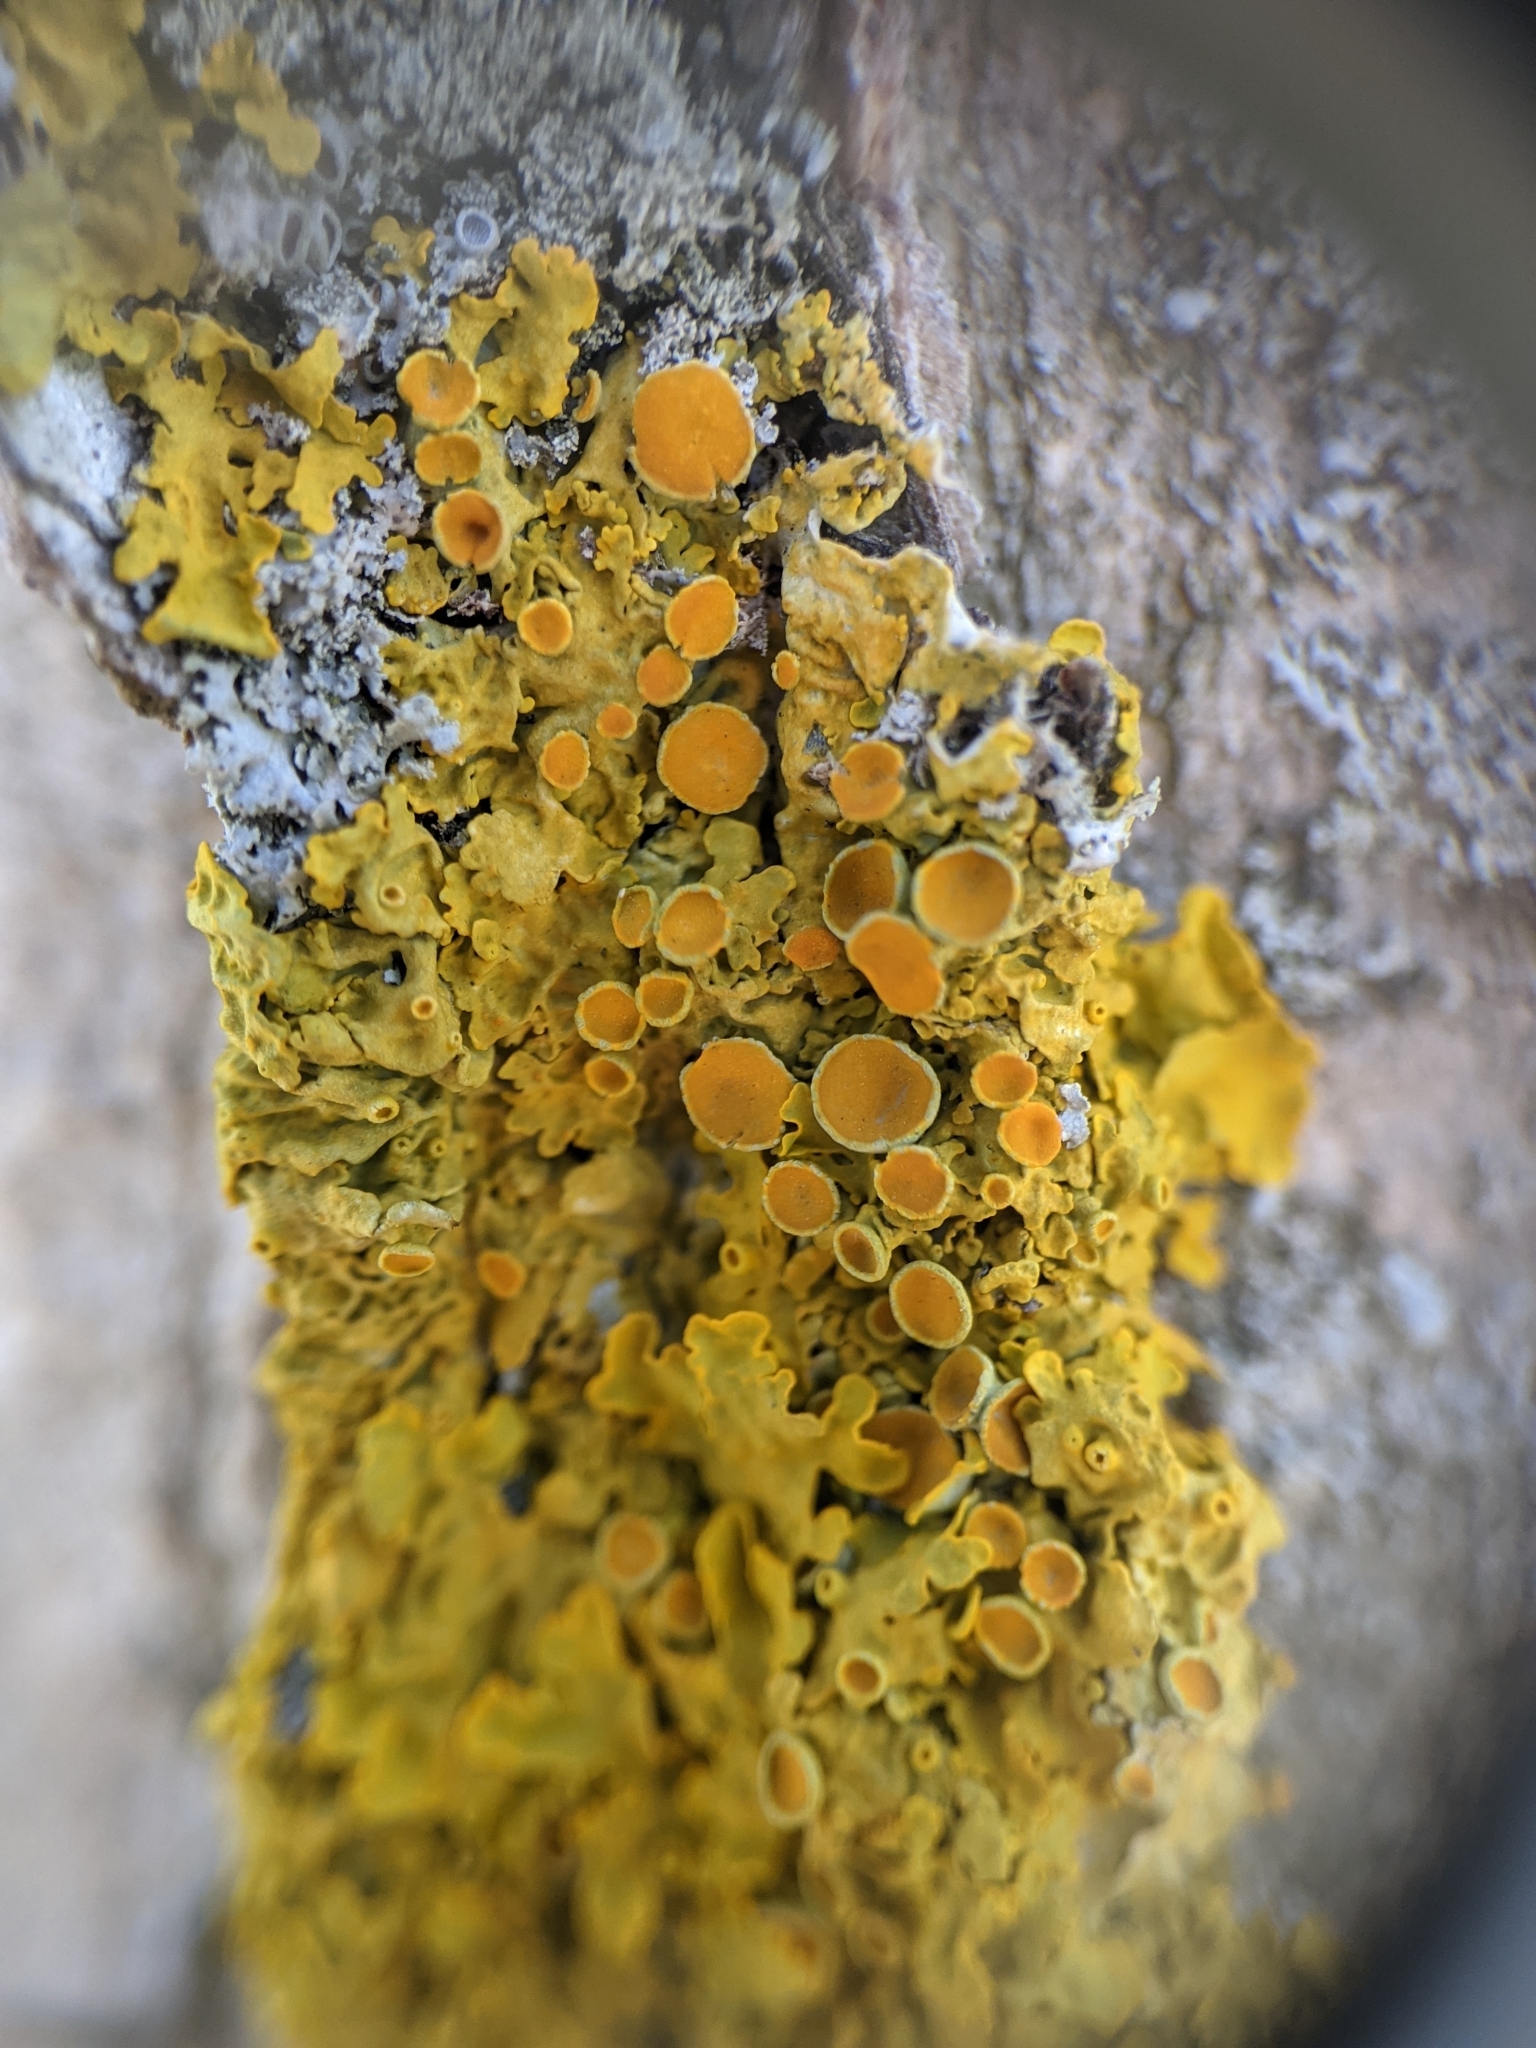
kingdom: Fungi
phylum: Ascomycota
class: Lecanoromycetes
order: Teloschistales
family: Teloschistaceae
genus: Xanthoria
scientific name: Xanthoria parietina
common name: Common orange lichen
